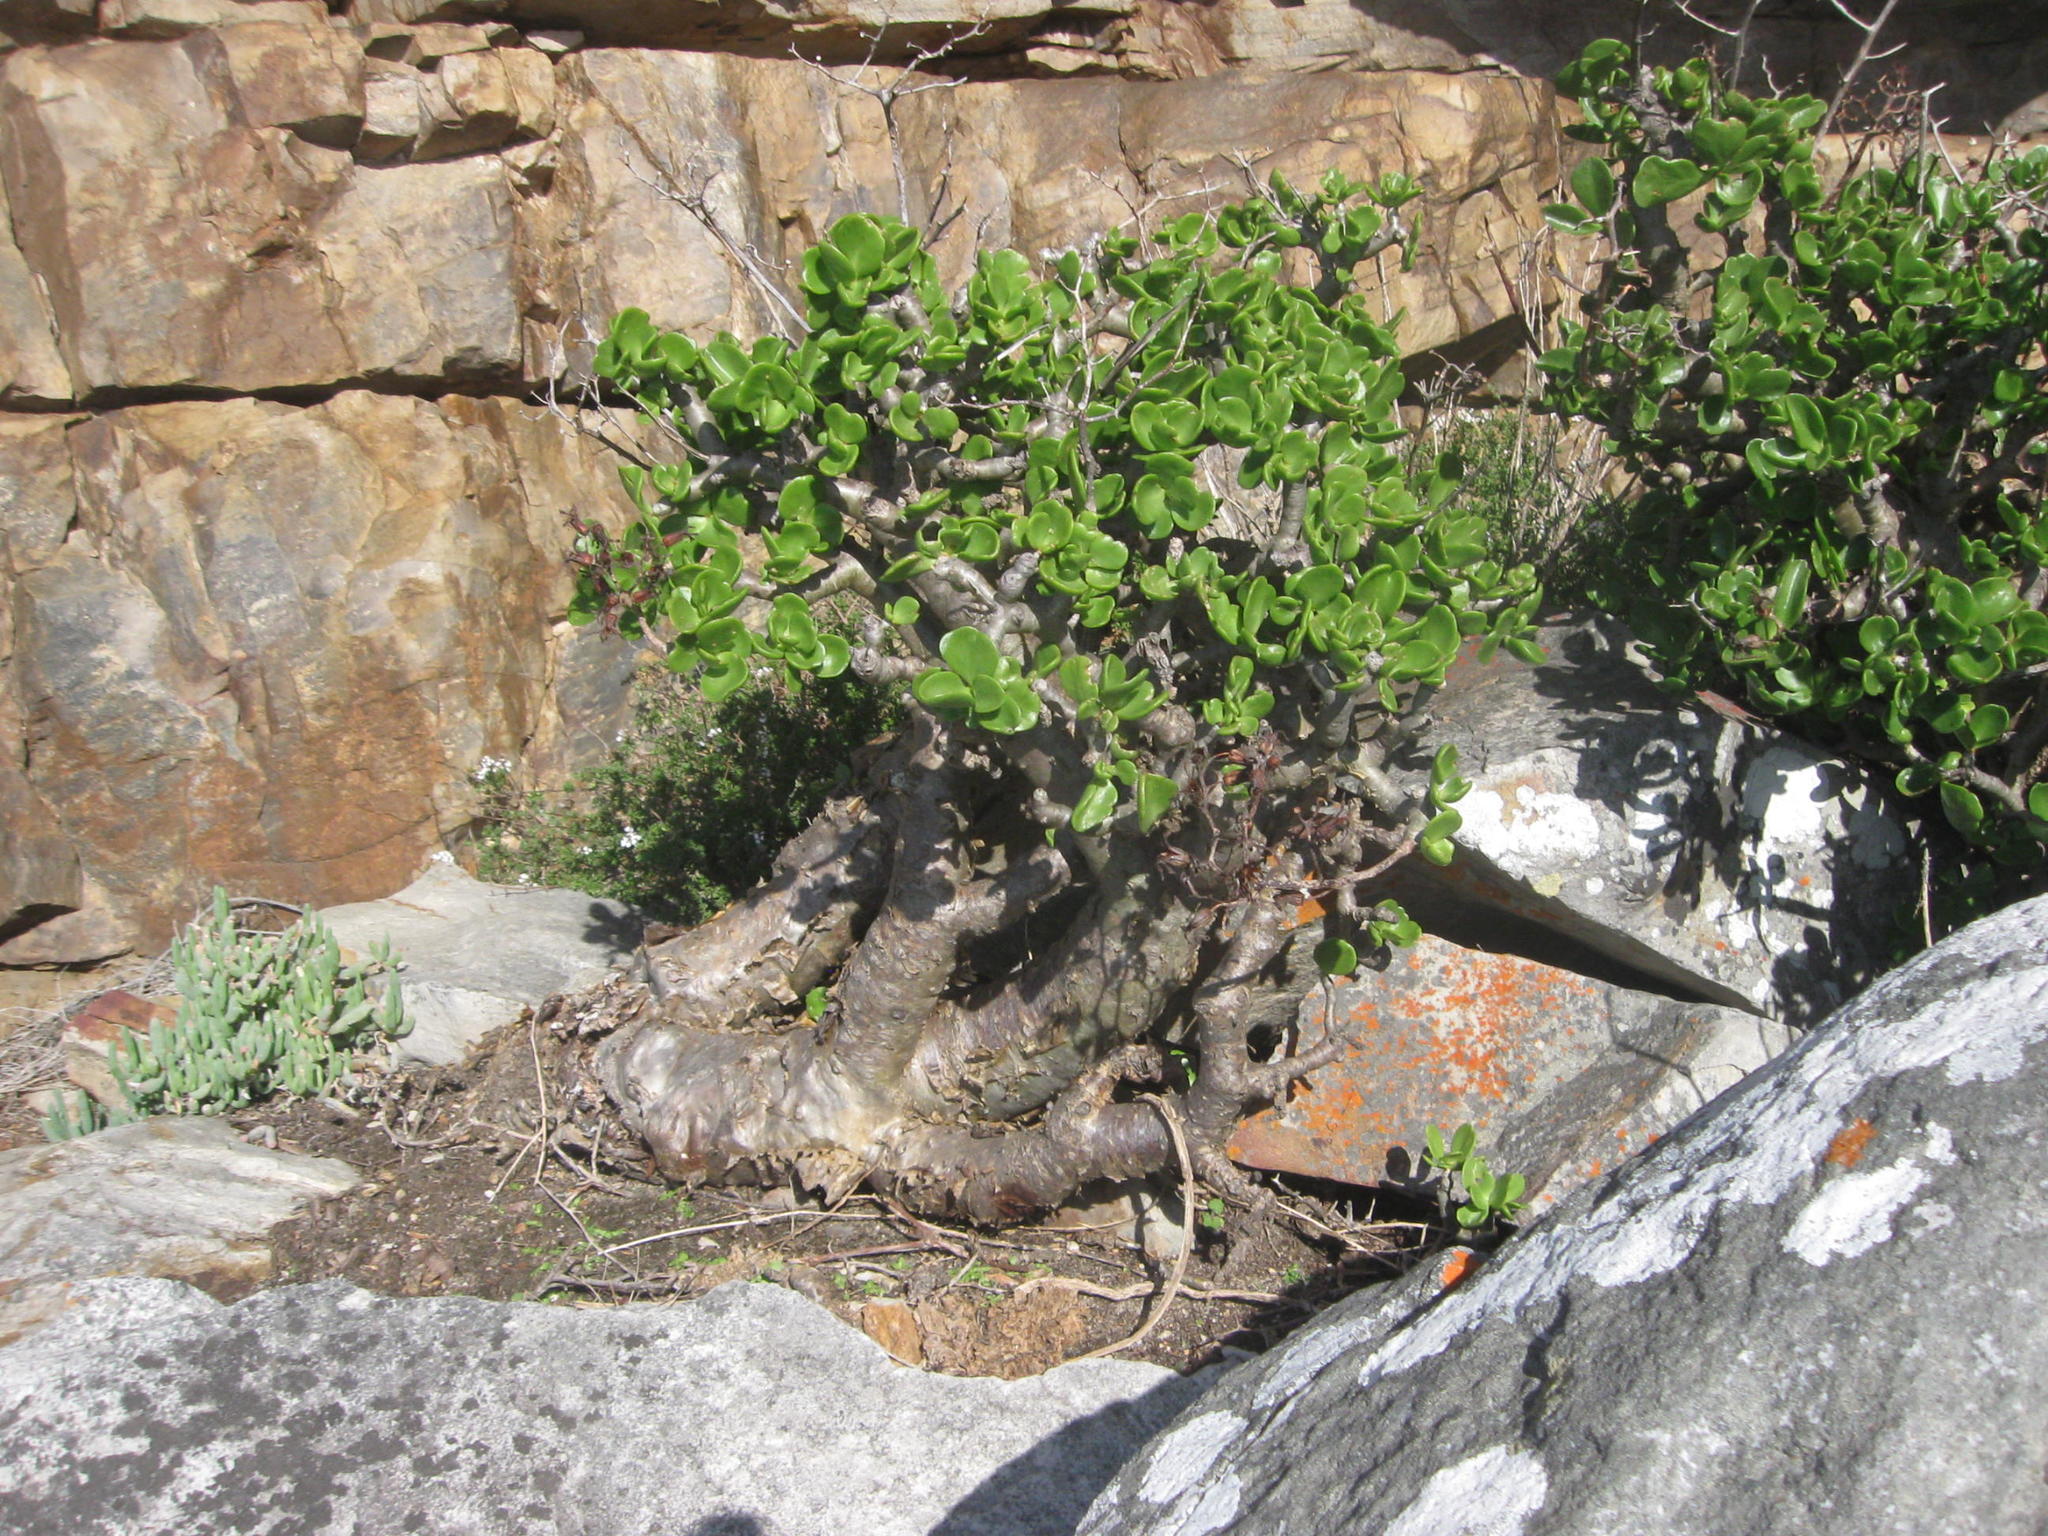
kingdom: Plantae
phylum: Tracheophyta
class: Magnoliopsida
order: Saxifragales
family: Crassulaceae
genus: Tylecodon
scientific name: Tylecodon paniculatus
